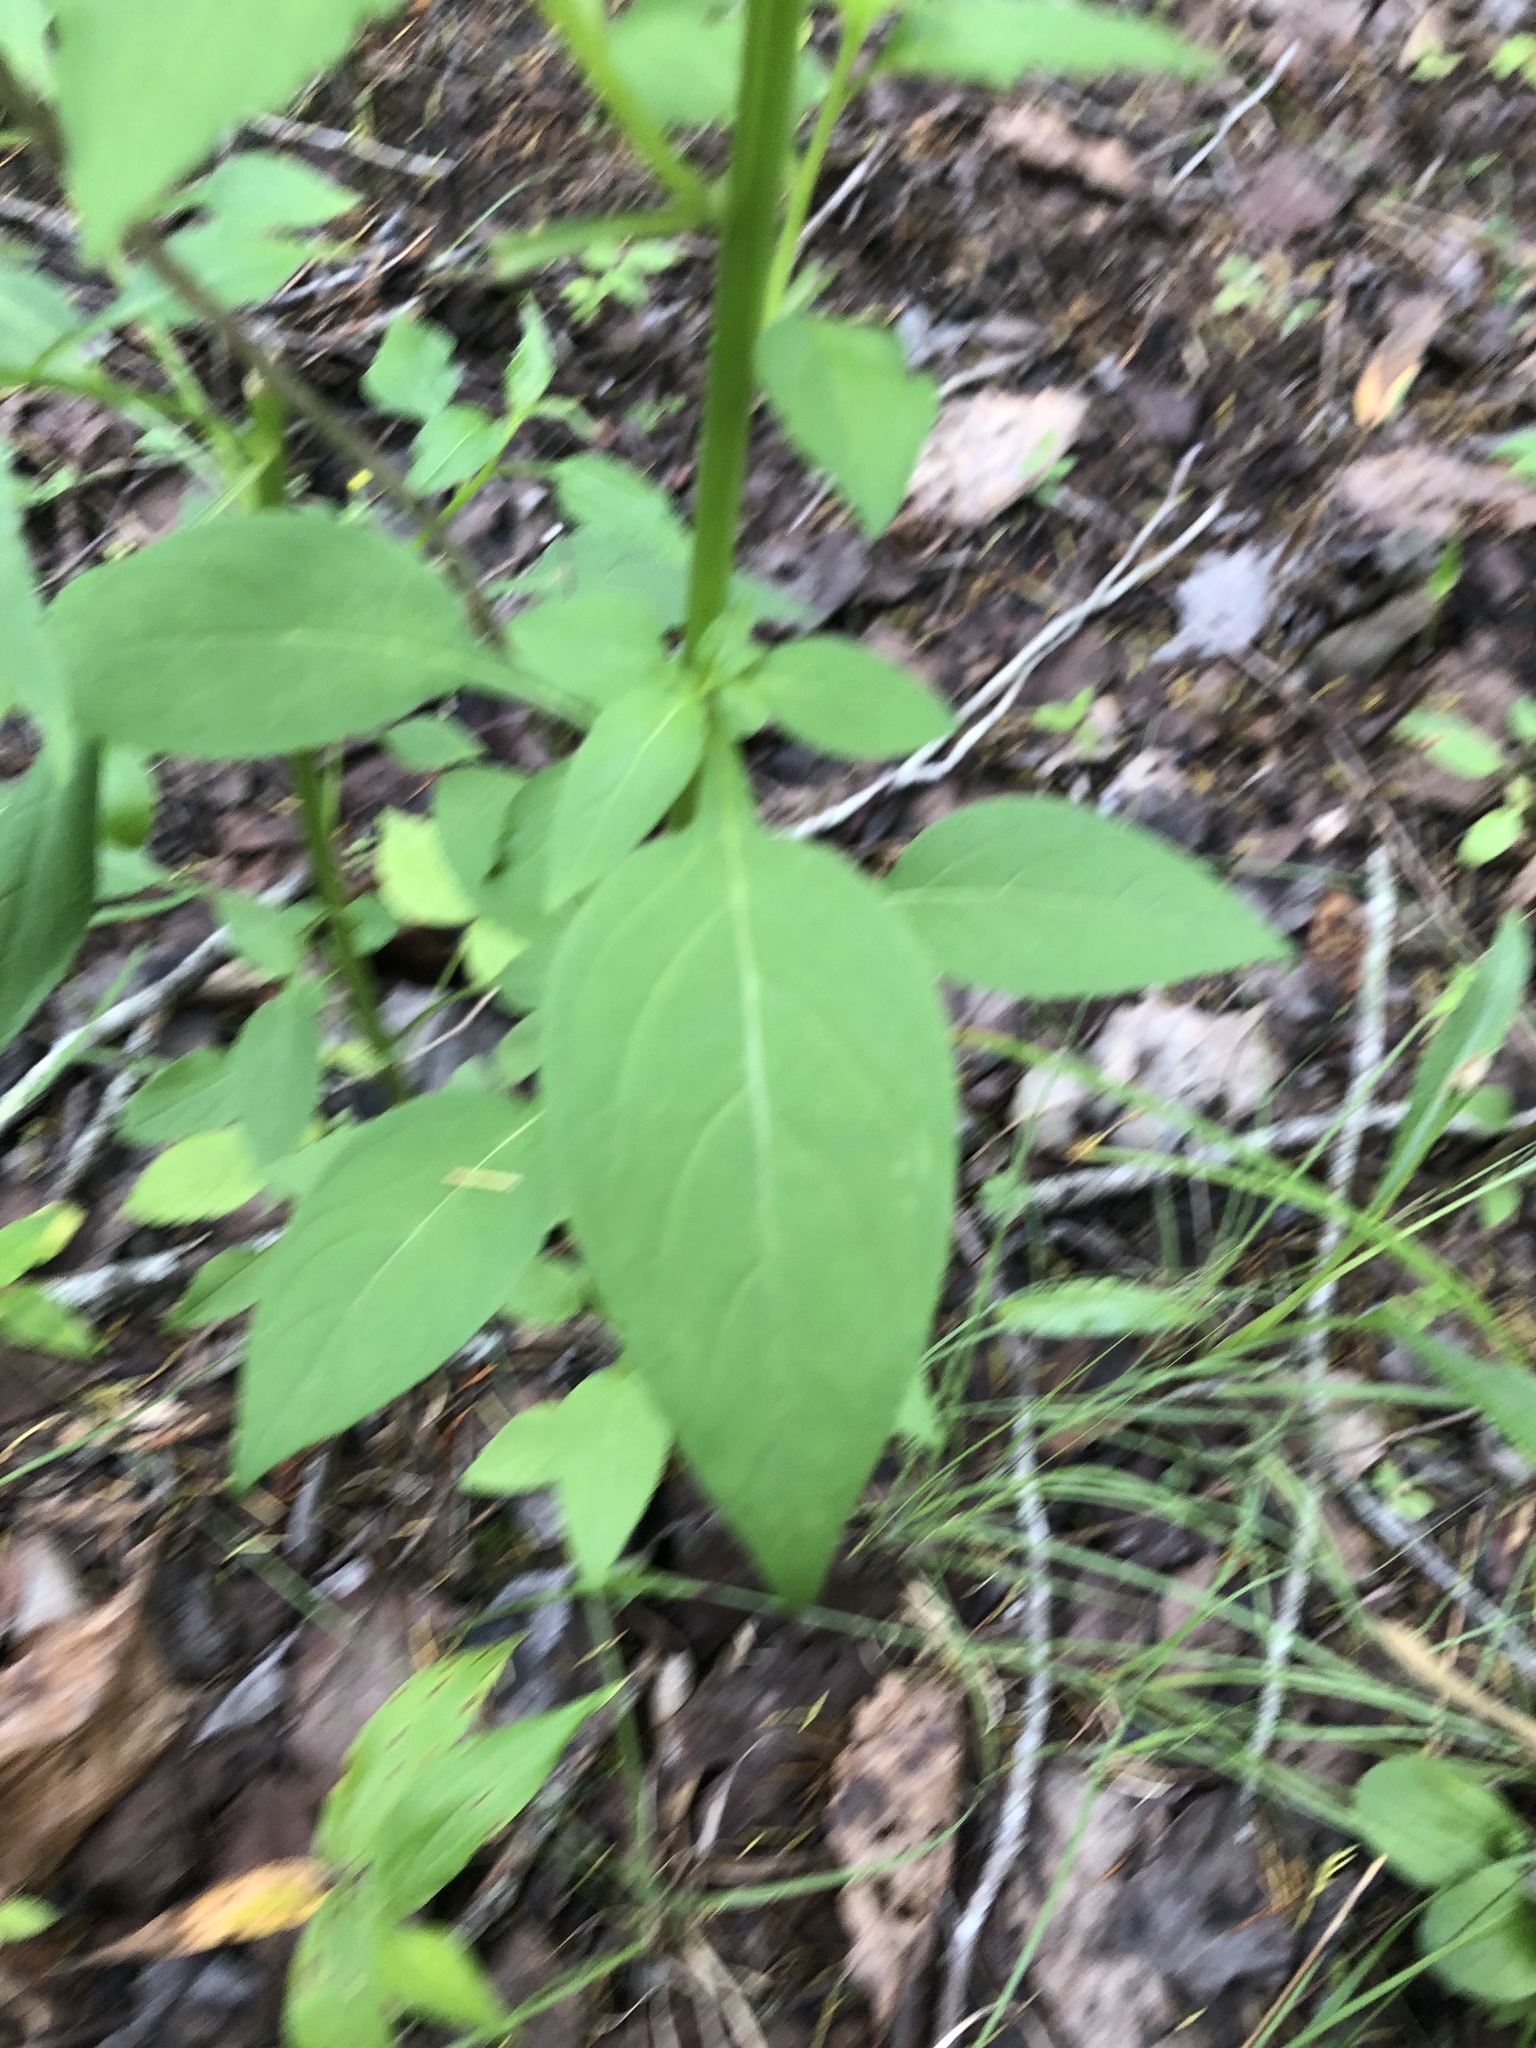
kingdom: Plantae
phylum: Tracheophyta
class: Magnoliopsida
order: Asterales
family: Campanulaceae
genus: Campanulastrum
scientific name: Campanulastrum americanum
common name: American bellflower
